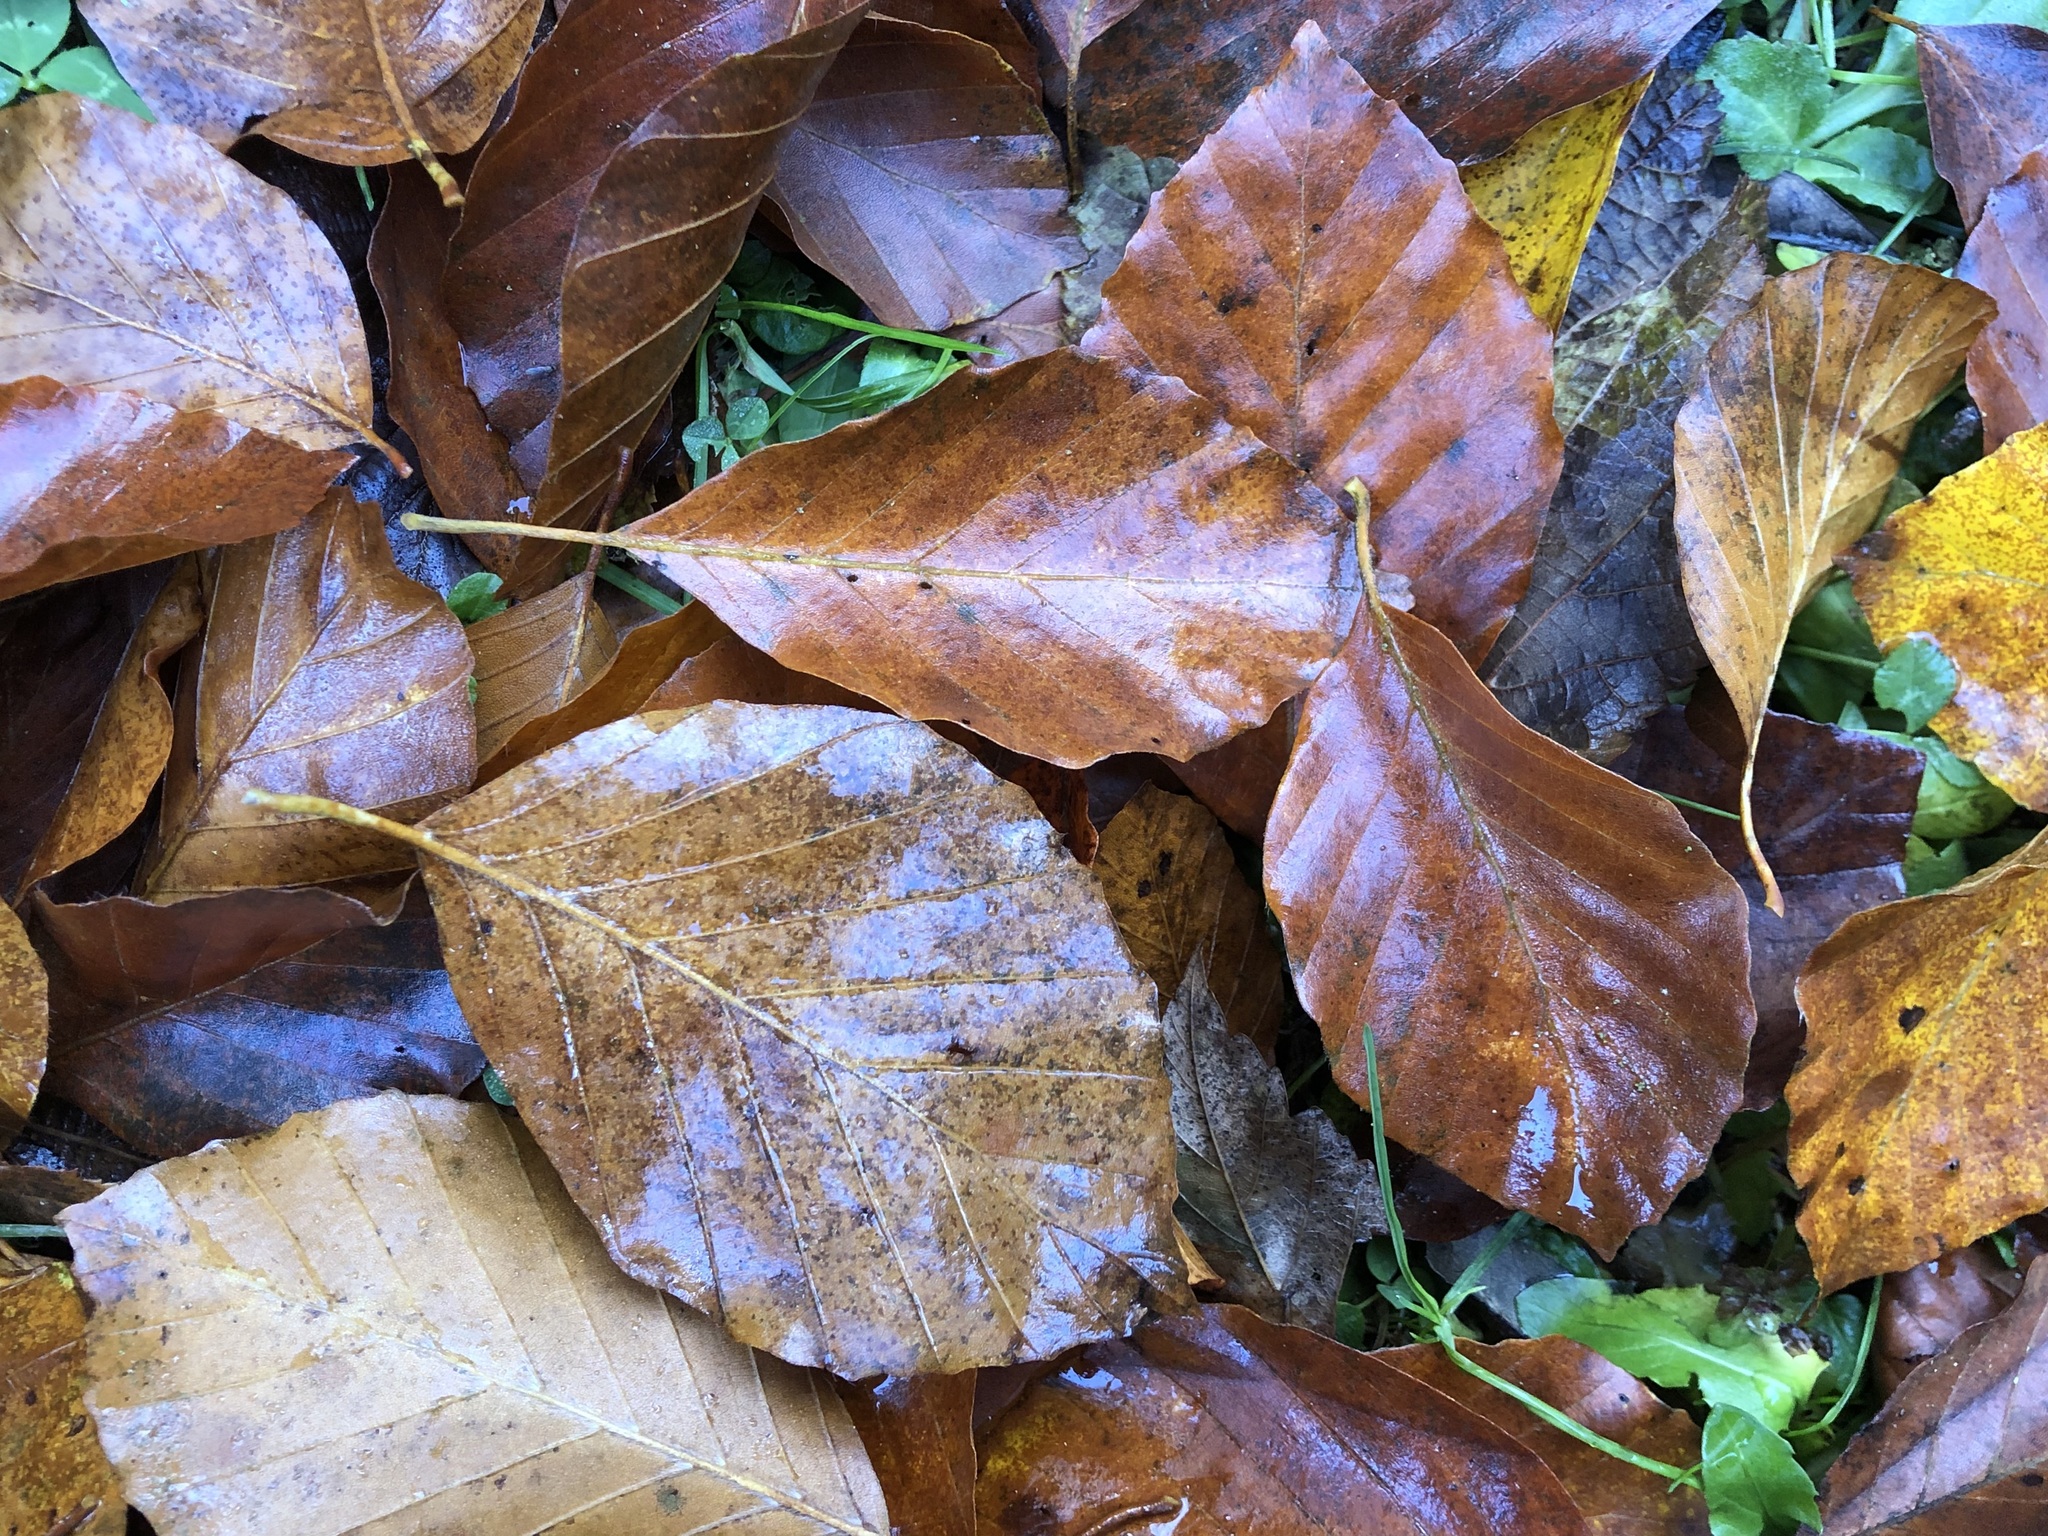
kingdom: Plantae
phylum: Tracheophyta
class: Magnoliopsida
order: Fagales
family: Fagaceae
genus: Fagus
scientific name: Fagus sylvatica
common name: Beech
